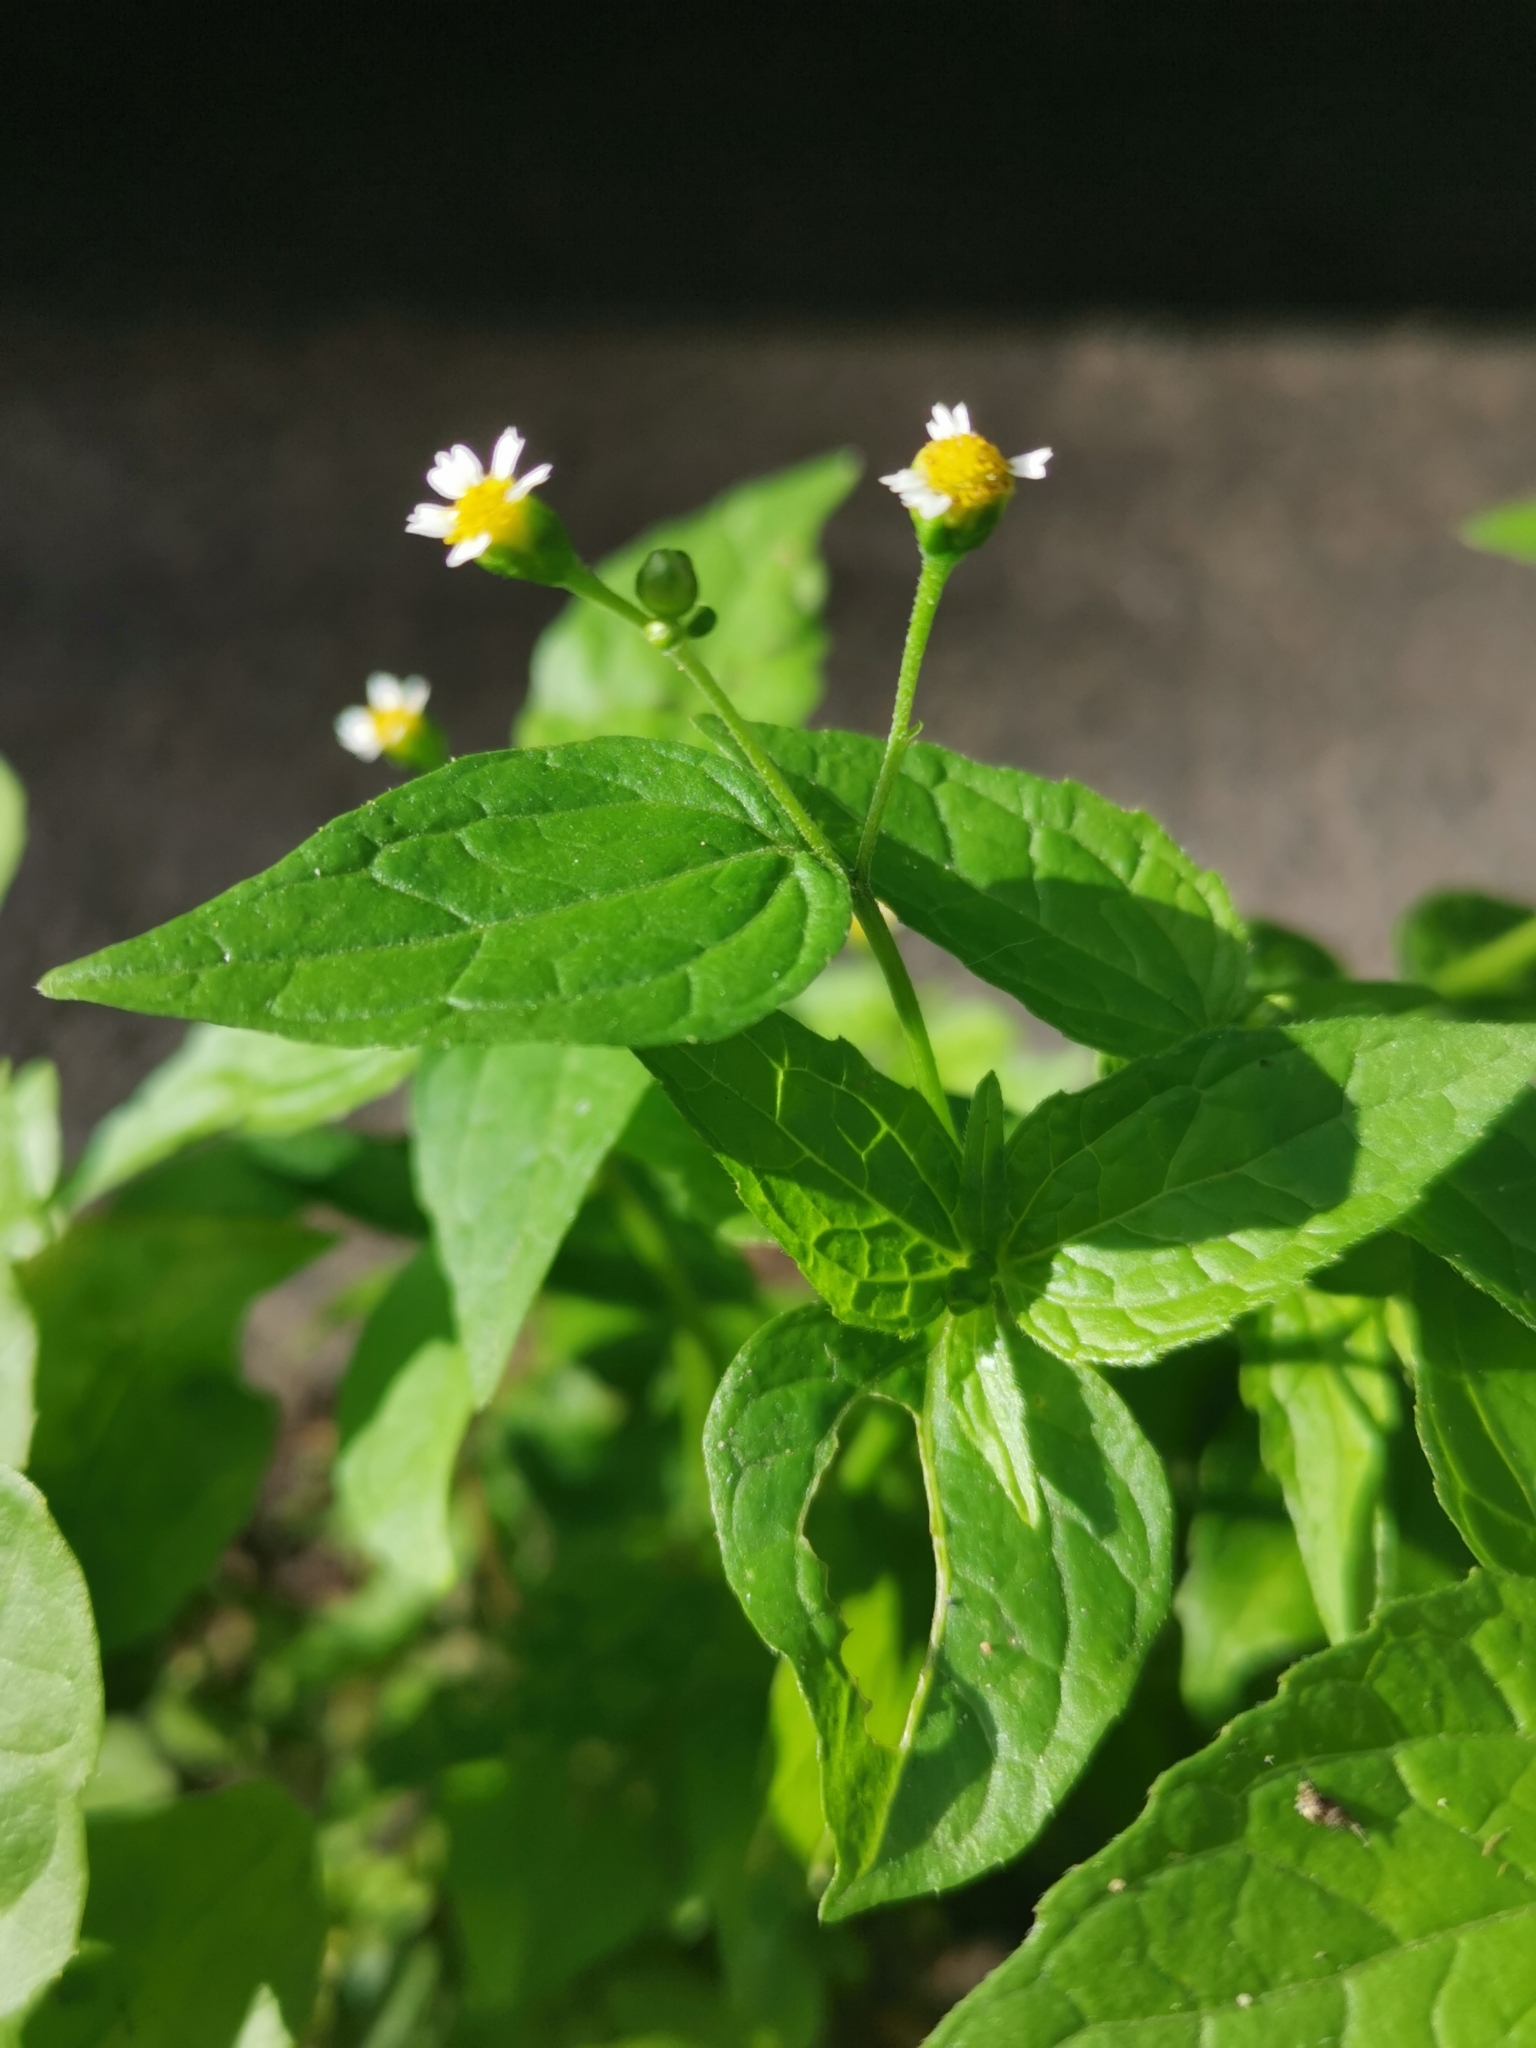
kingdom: Plantae
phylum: Tracheophyta
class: Magnoliopsida
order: Asterales
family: Asteraceae
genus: Galinsoga
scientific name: Galinsoga parviflora
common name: Gallant soldier
